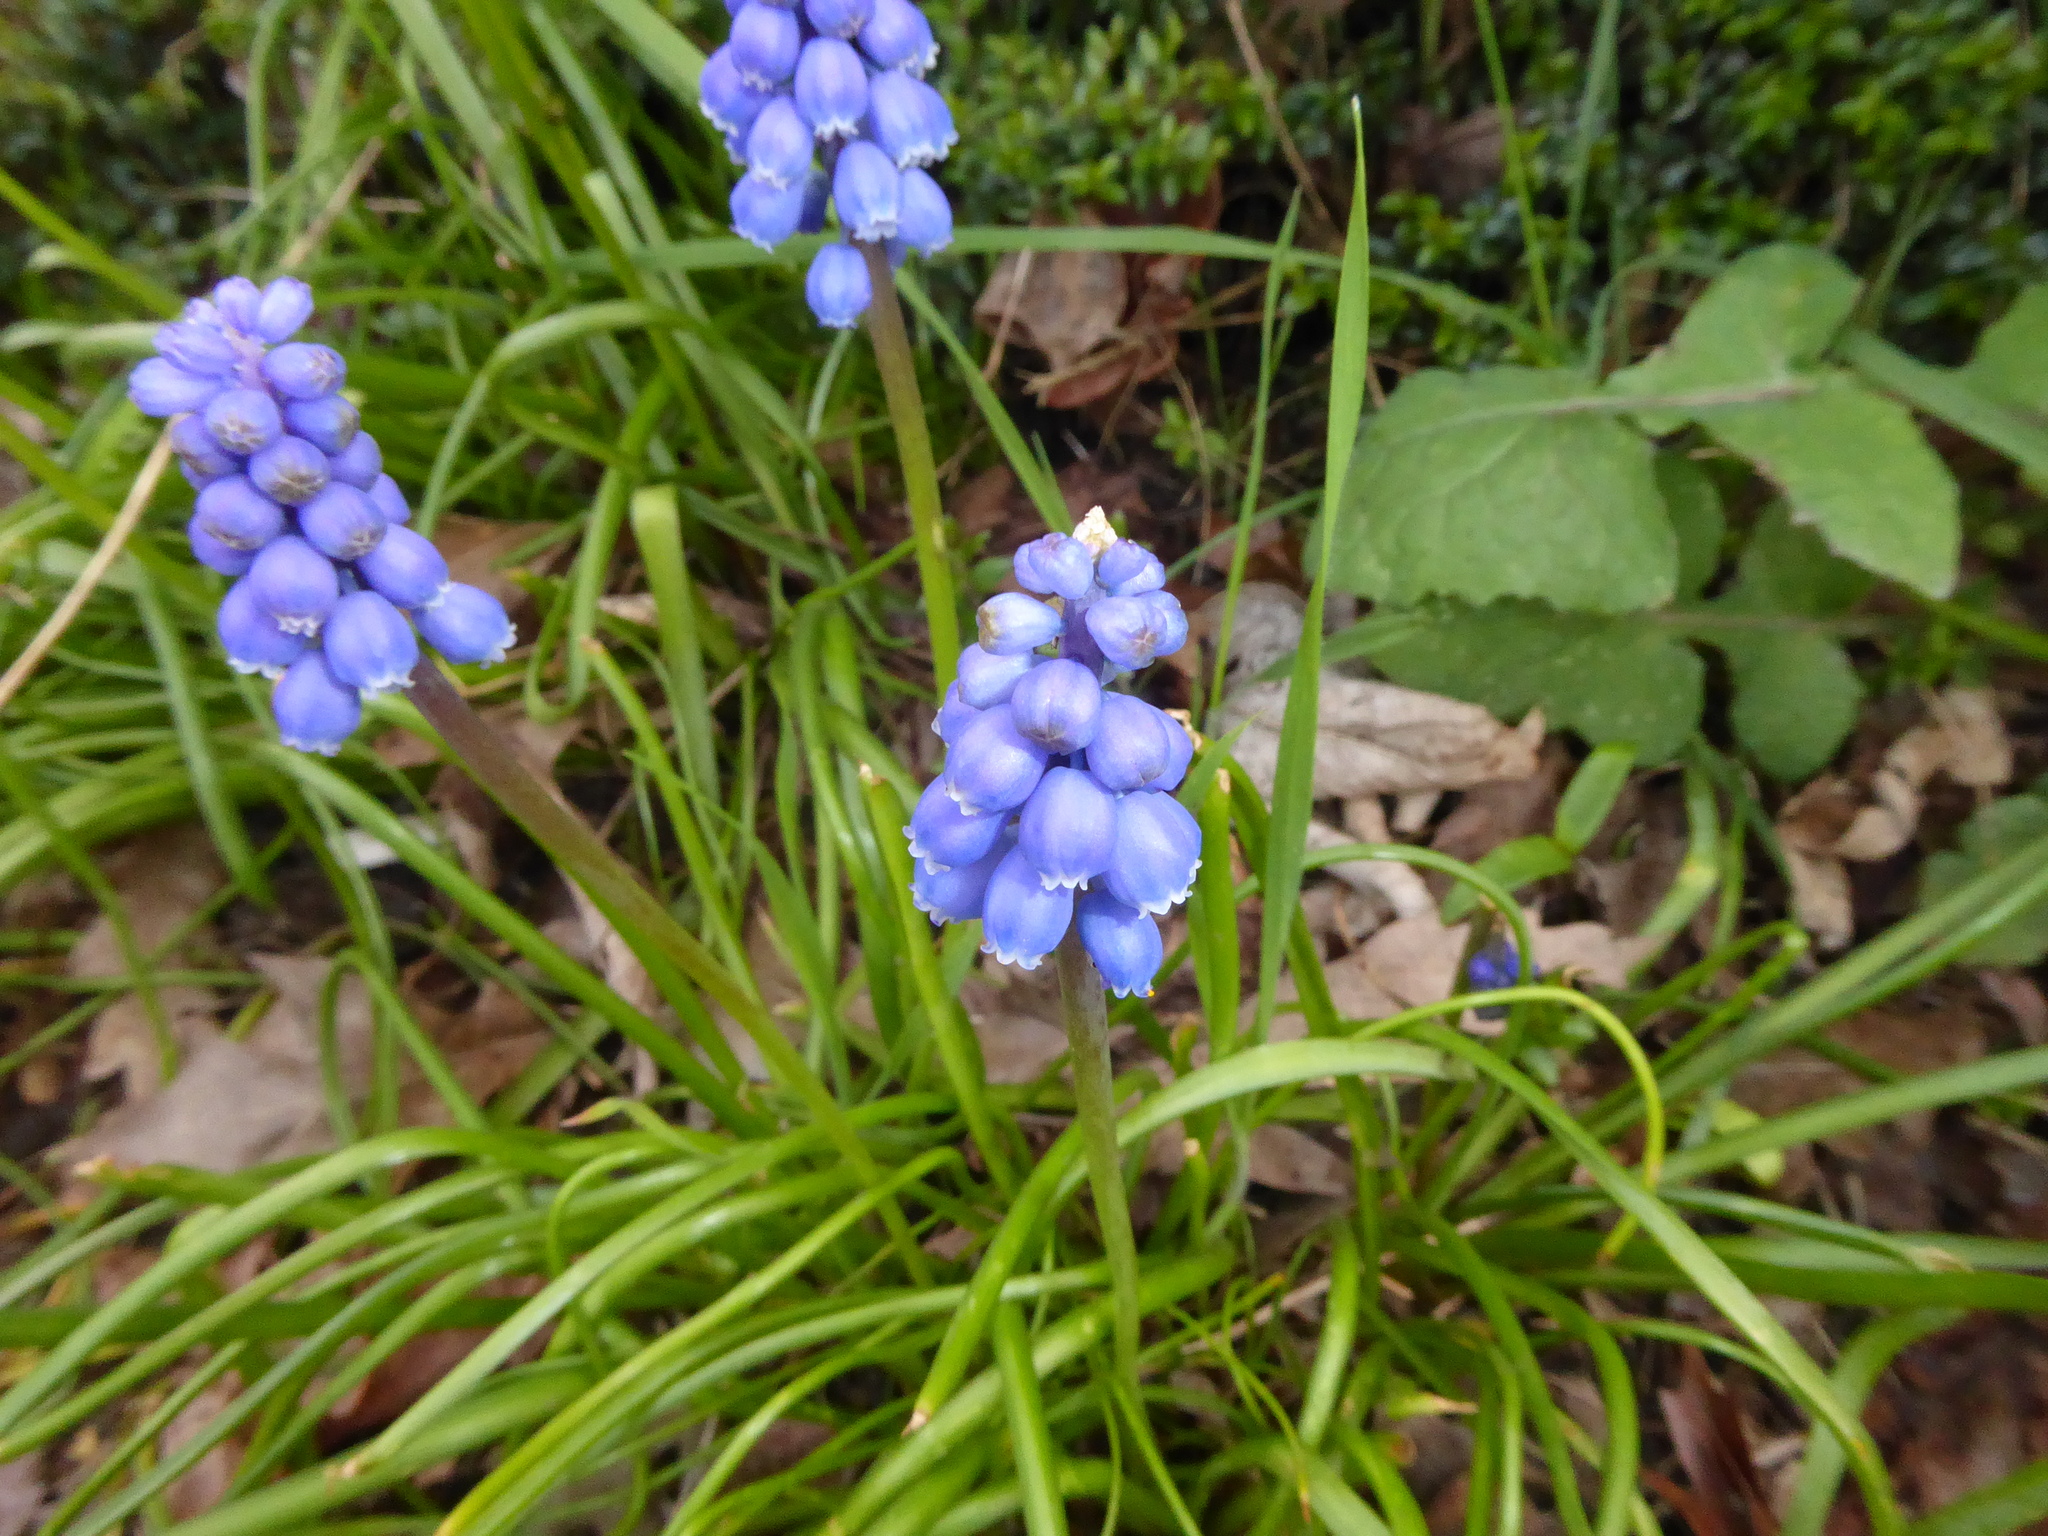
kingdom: Plantae
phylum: Tracheophyta
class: Liliopsida
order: Asparagales
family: Asparagaceae
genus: Muscari
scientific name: Muscari armeniacum
